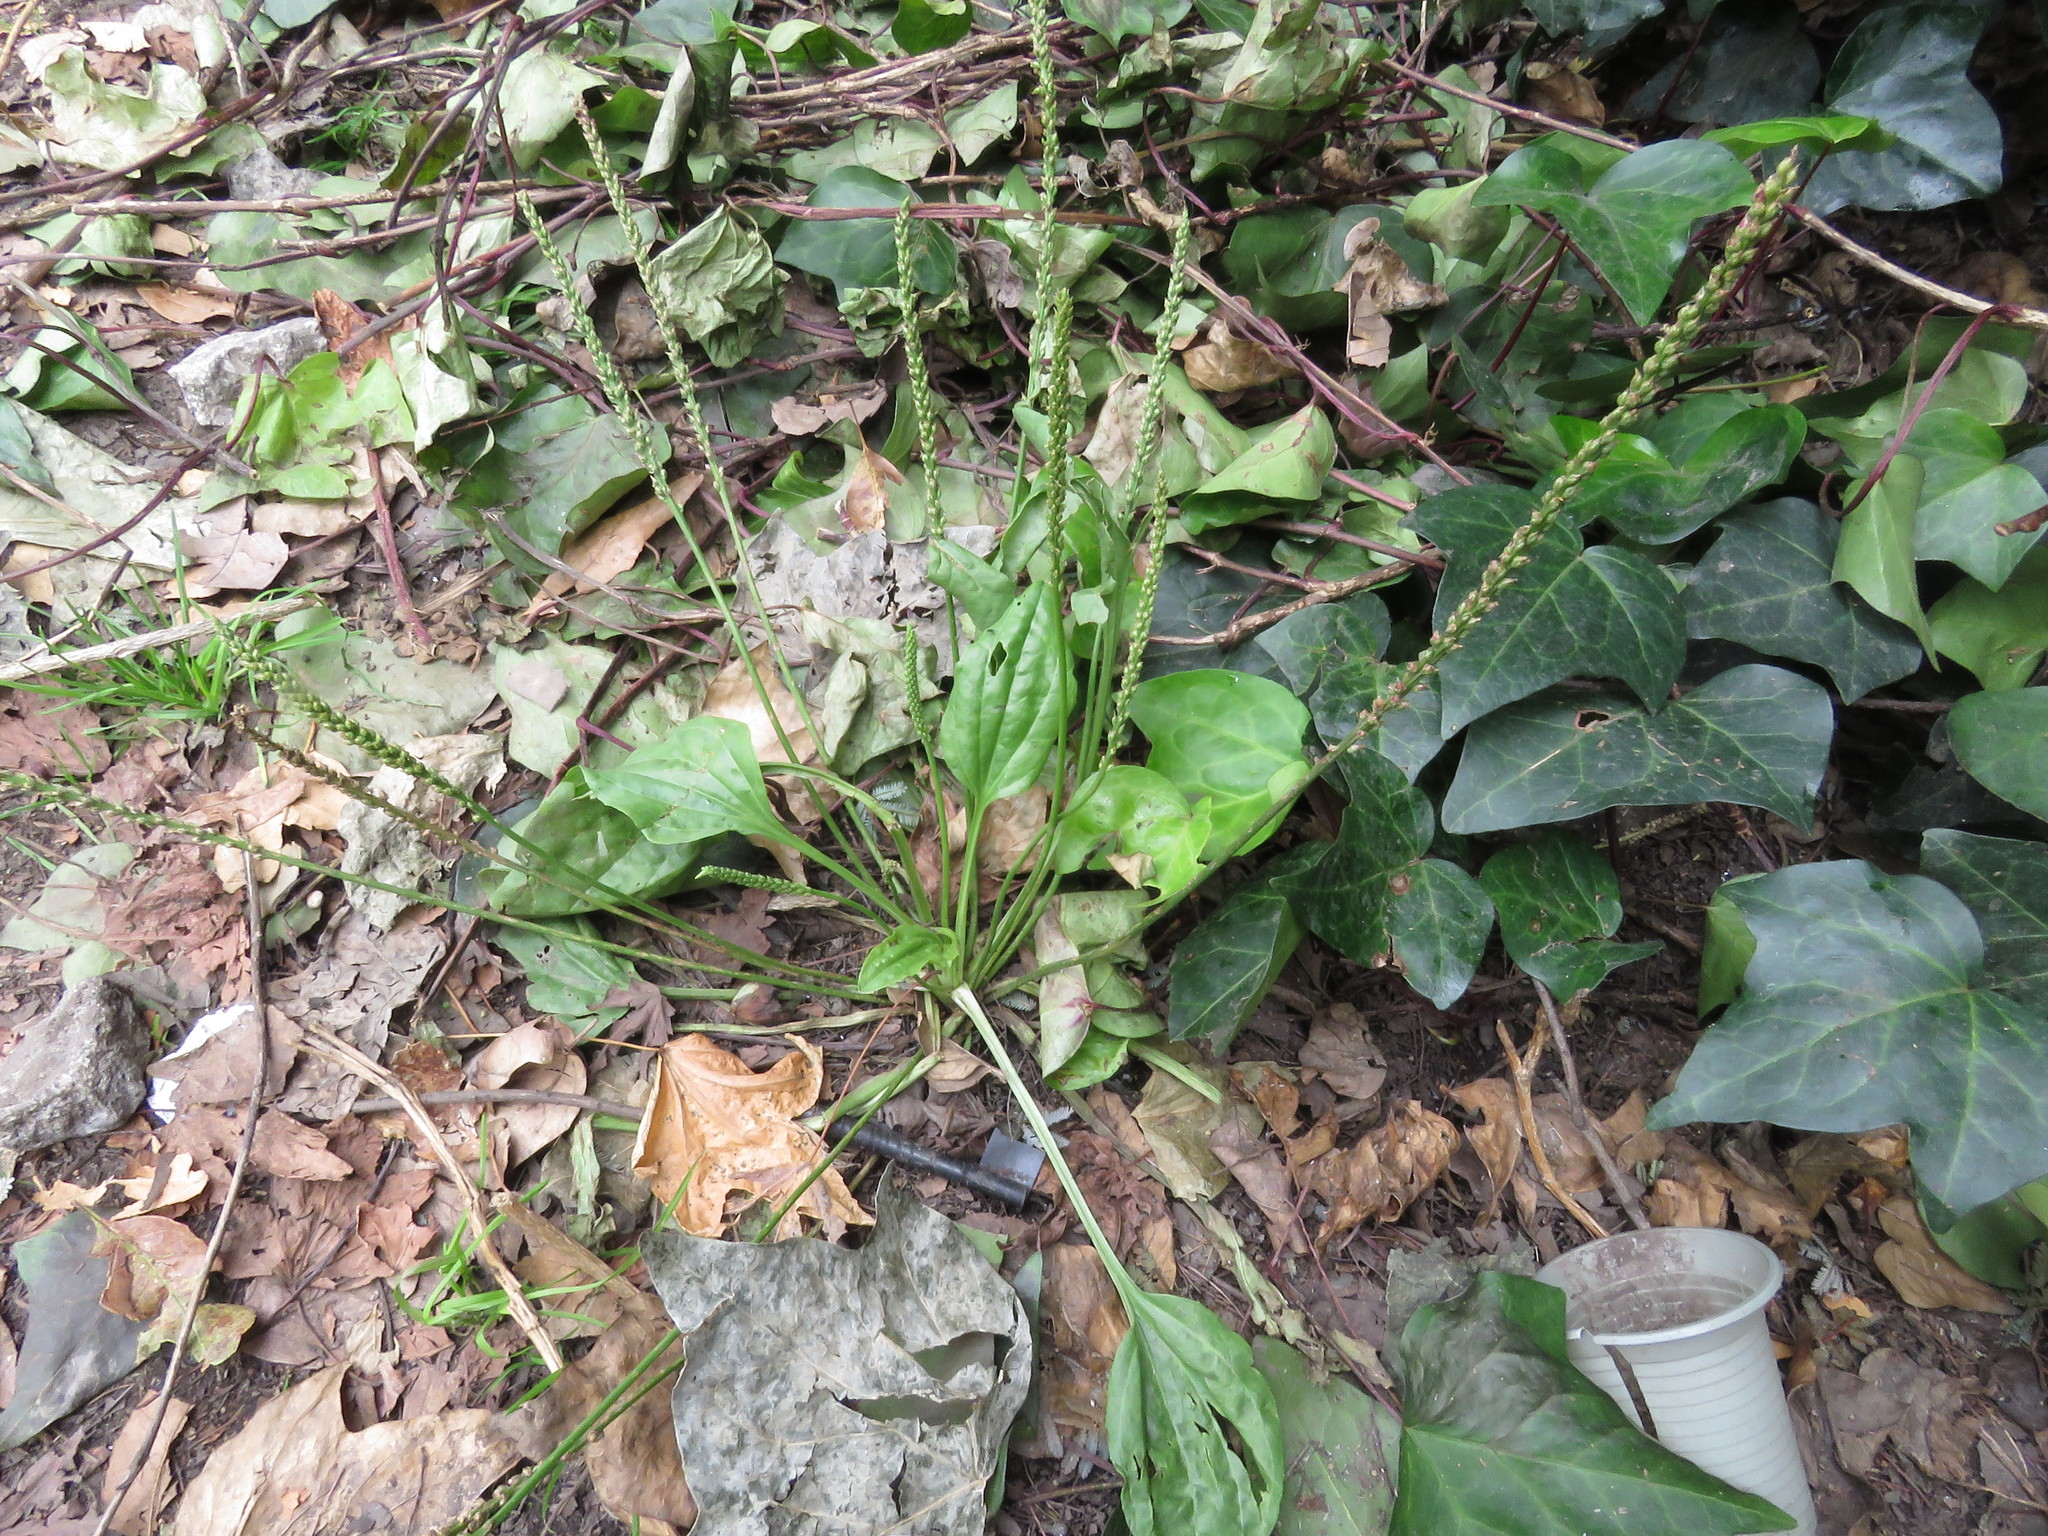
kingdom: Plantae
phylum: Tracheophyta
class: Magnoliopsida
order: Lamiales
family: Plantaginaceae
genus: Plantago
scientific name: Plantago major
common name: Common plantain
